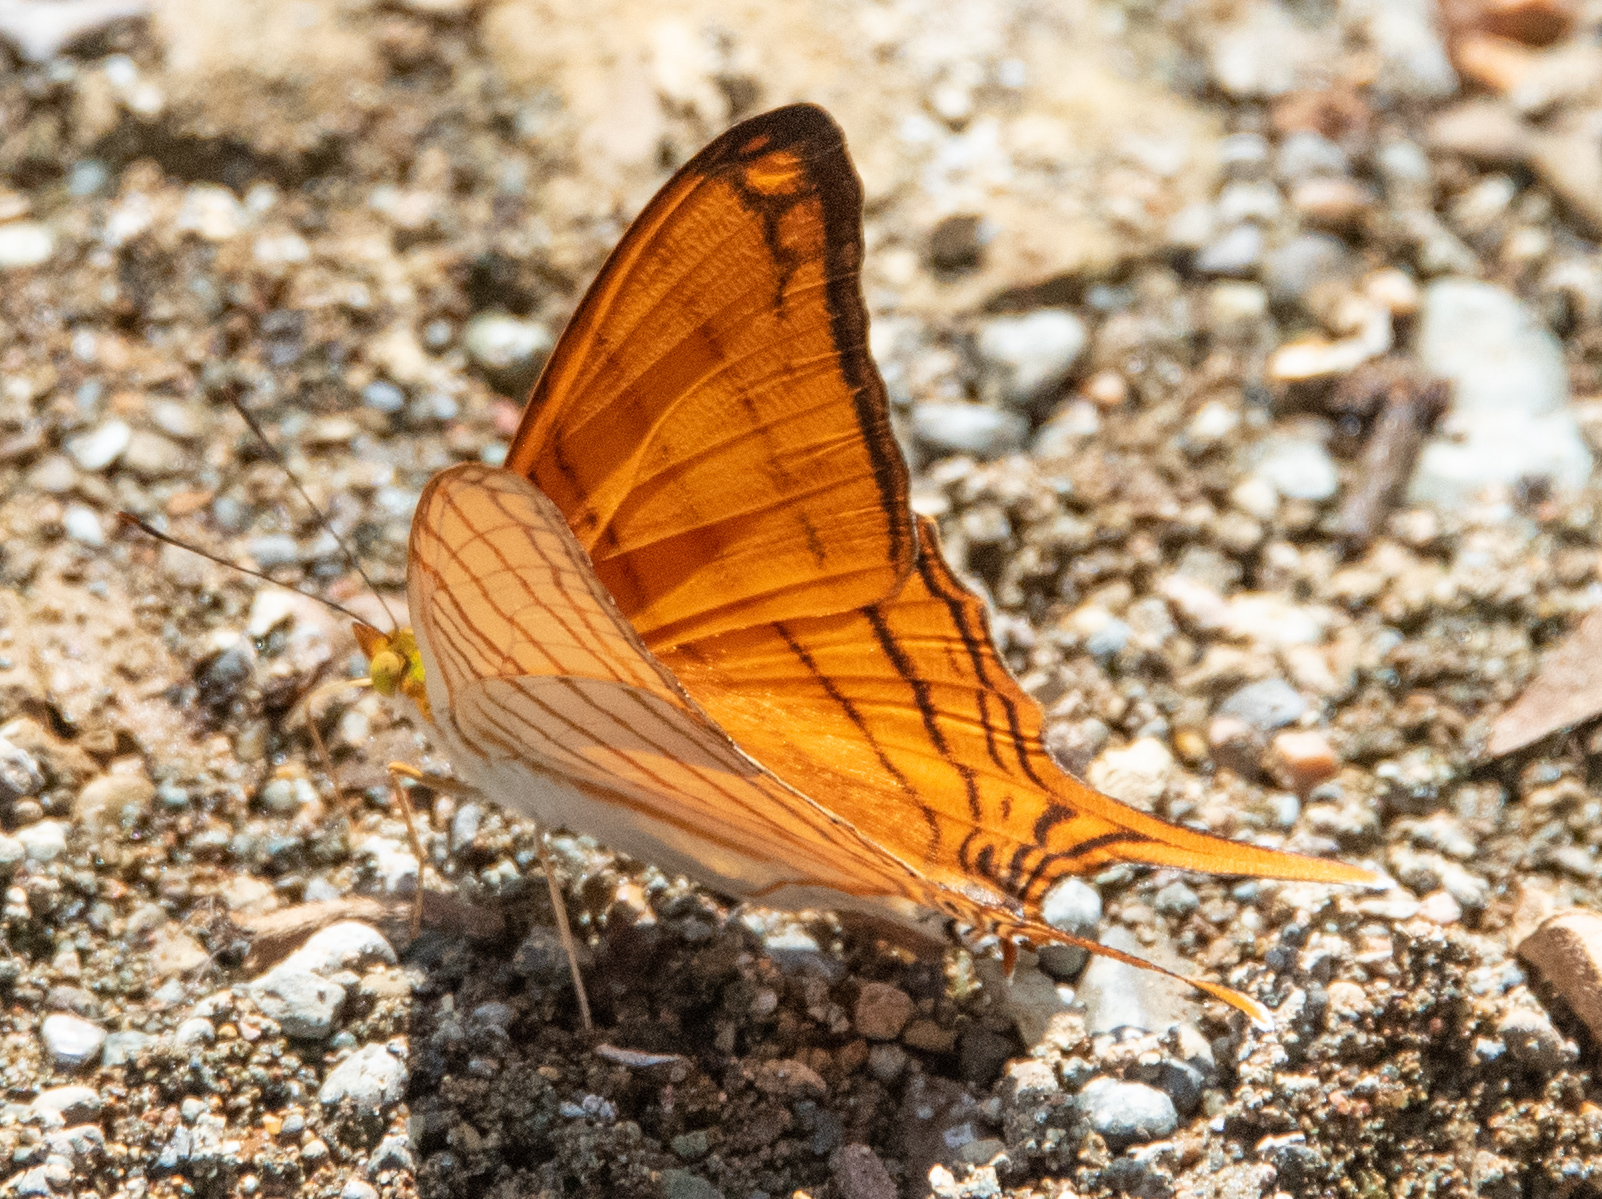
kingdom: Animalia
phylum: Arthropoda
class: Insecta
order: Lepidoptera
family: Nymphalidae
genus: Marpesia
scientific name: Marpesia berania
